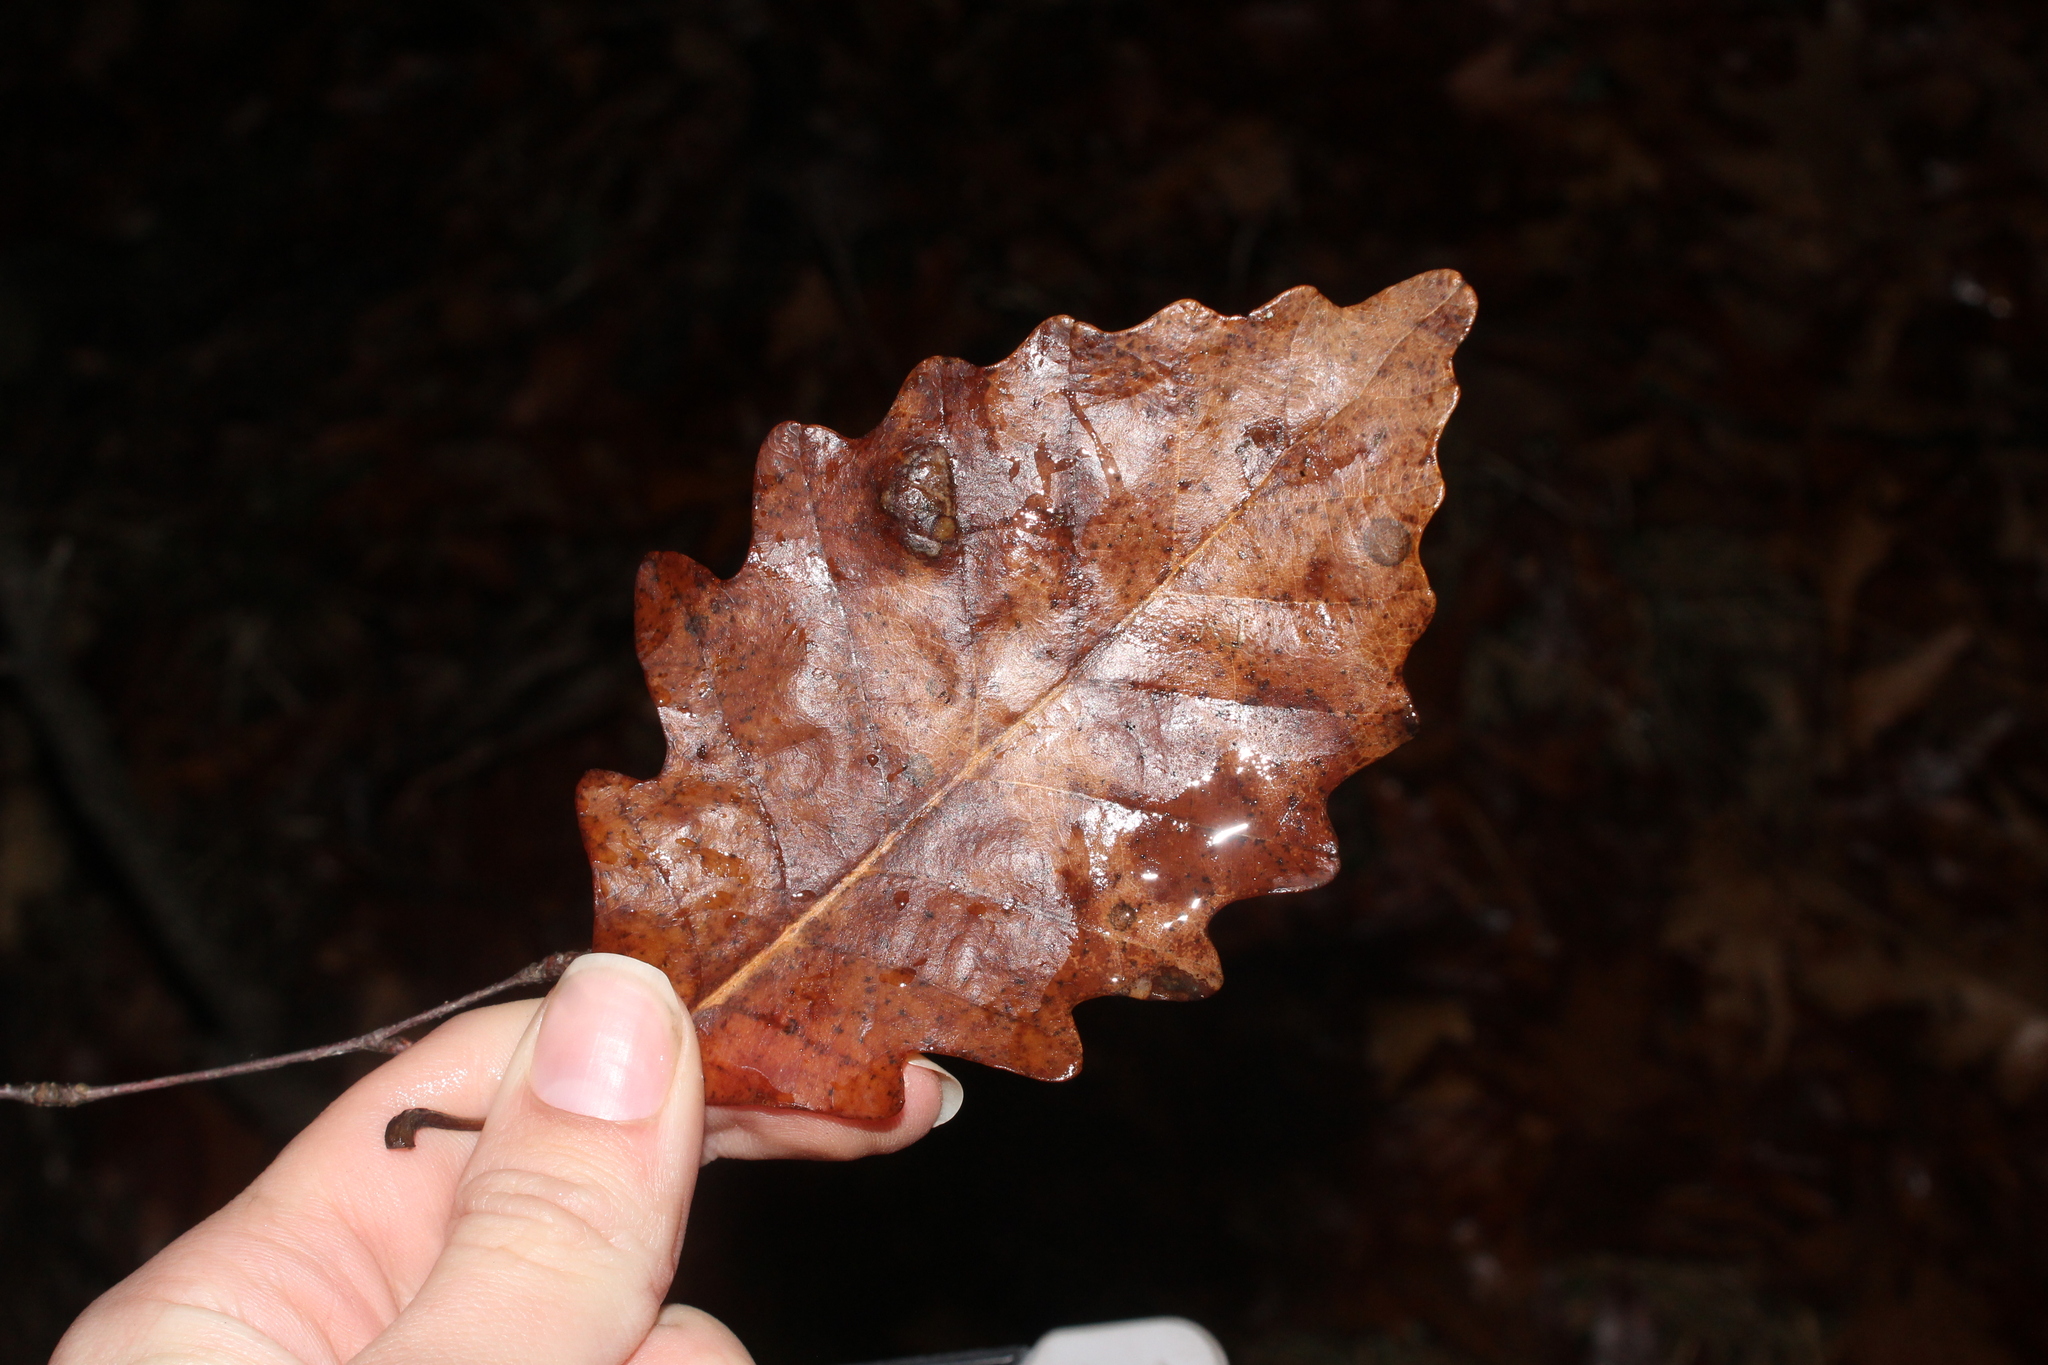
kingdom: Plantae
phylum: Tracheophyta
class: Magnoliopsida
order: Fagales
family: Fagaceae
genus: Quercus
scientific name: Quercus montana
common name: Chestnut oak
